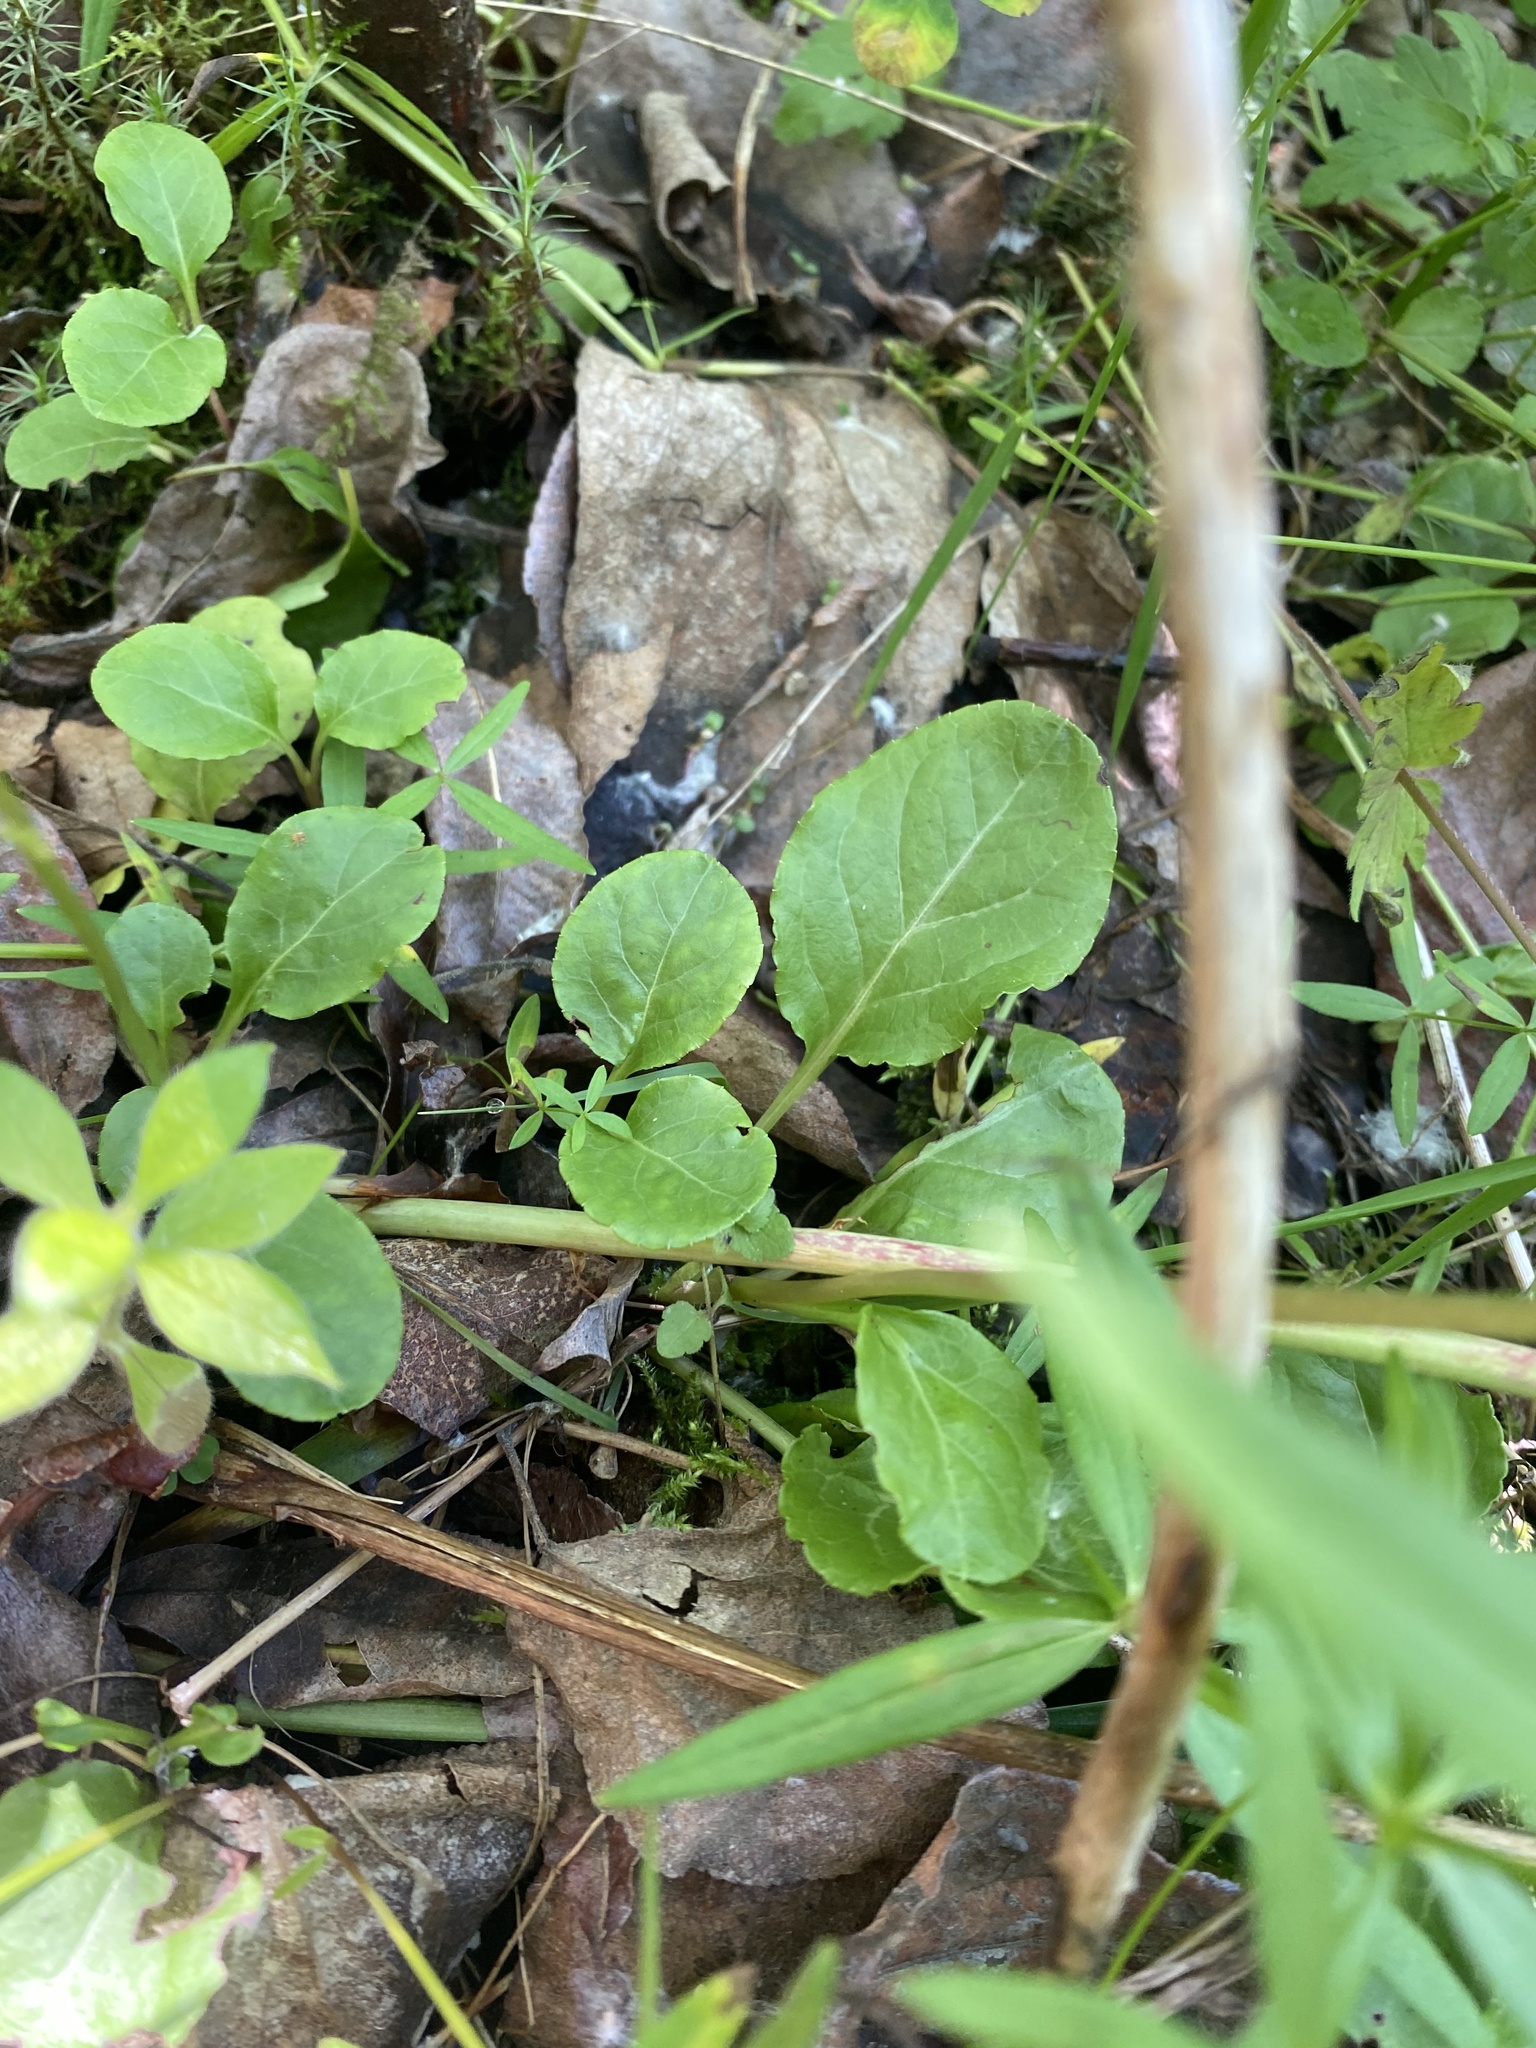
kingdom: Plantae
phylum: Tracheophyta
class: Magnoliopsida
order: Ericales
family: Ericaceae
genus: Orthilia
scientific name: Orthilia secunda
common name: One-sided orthilia
